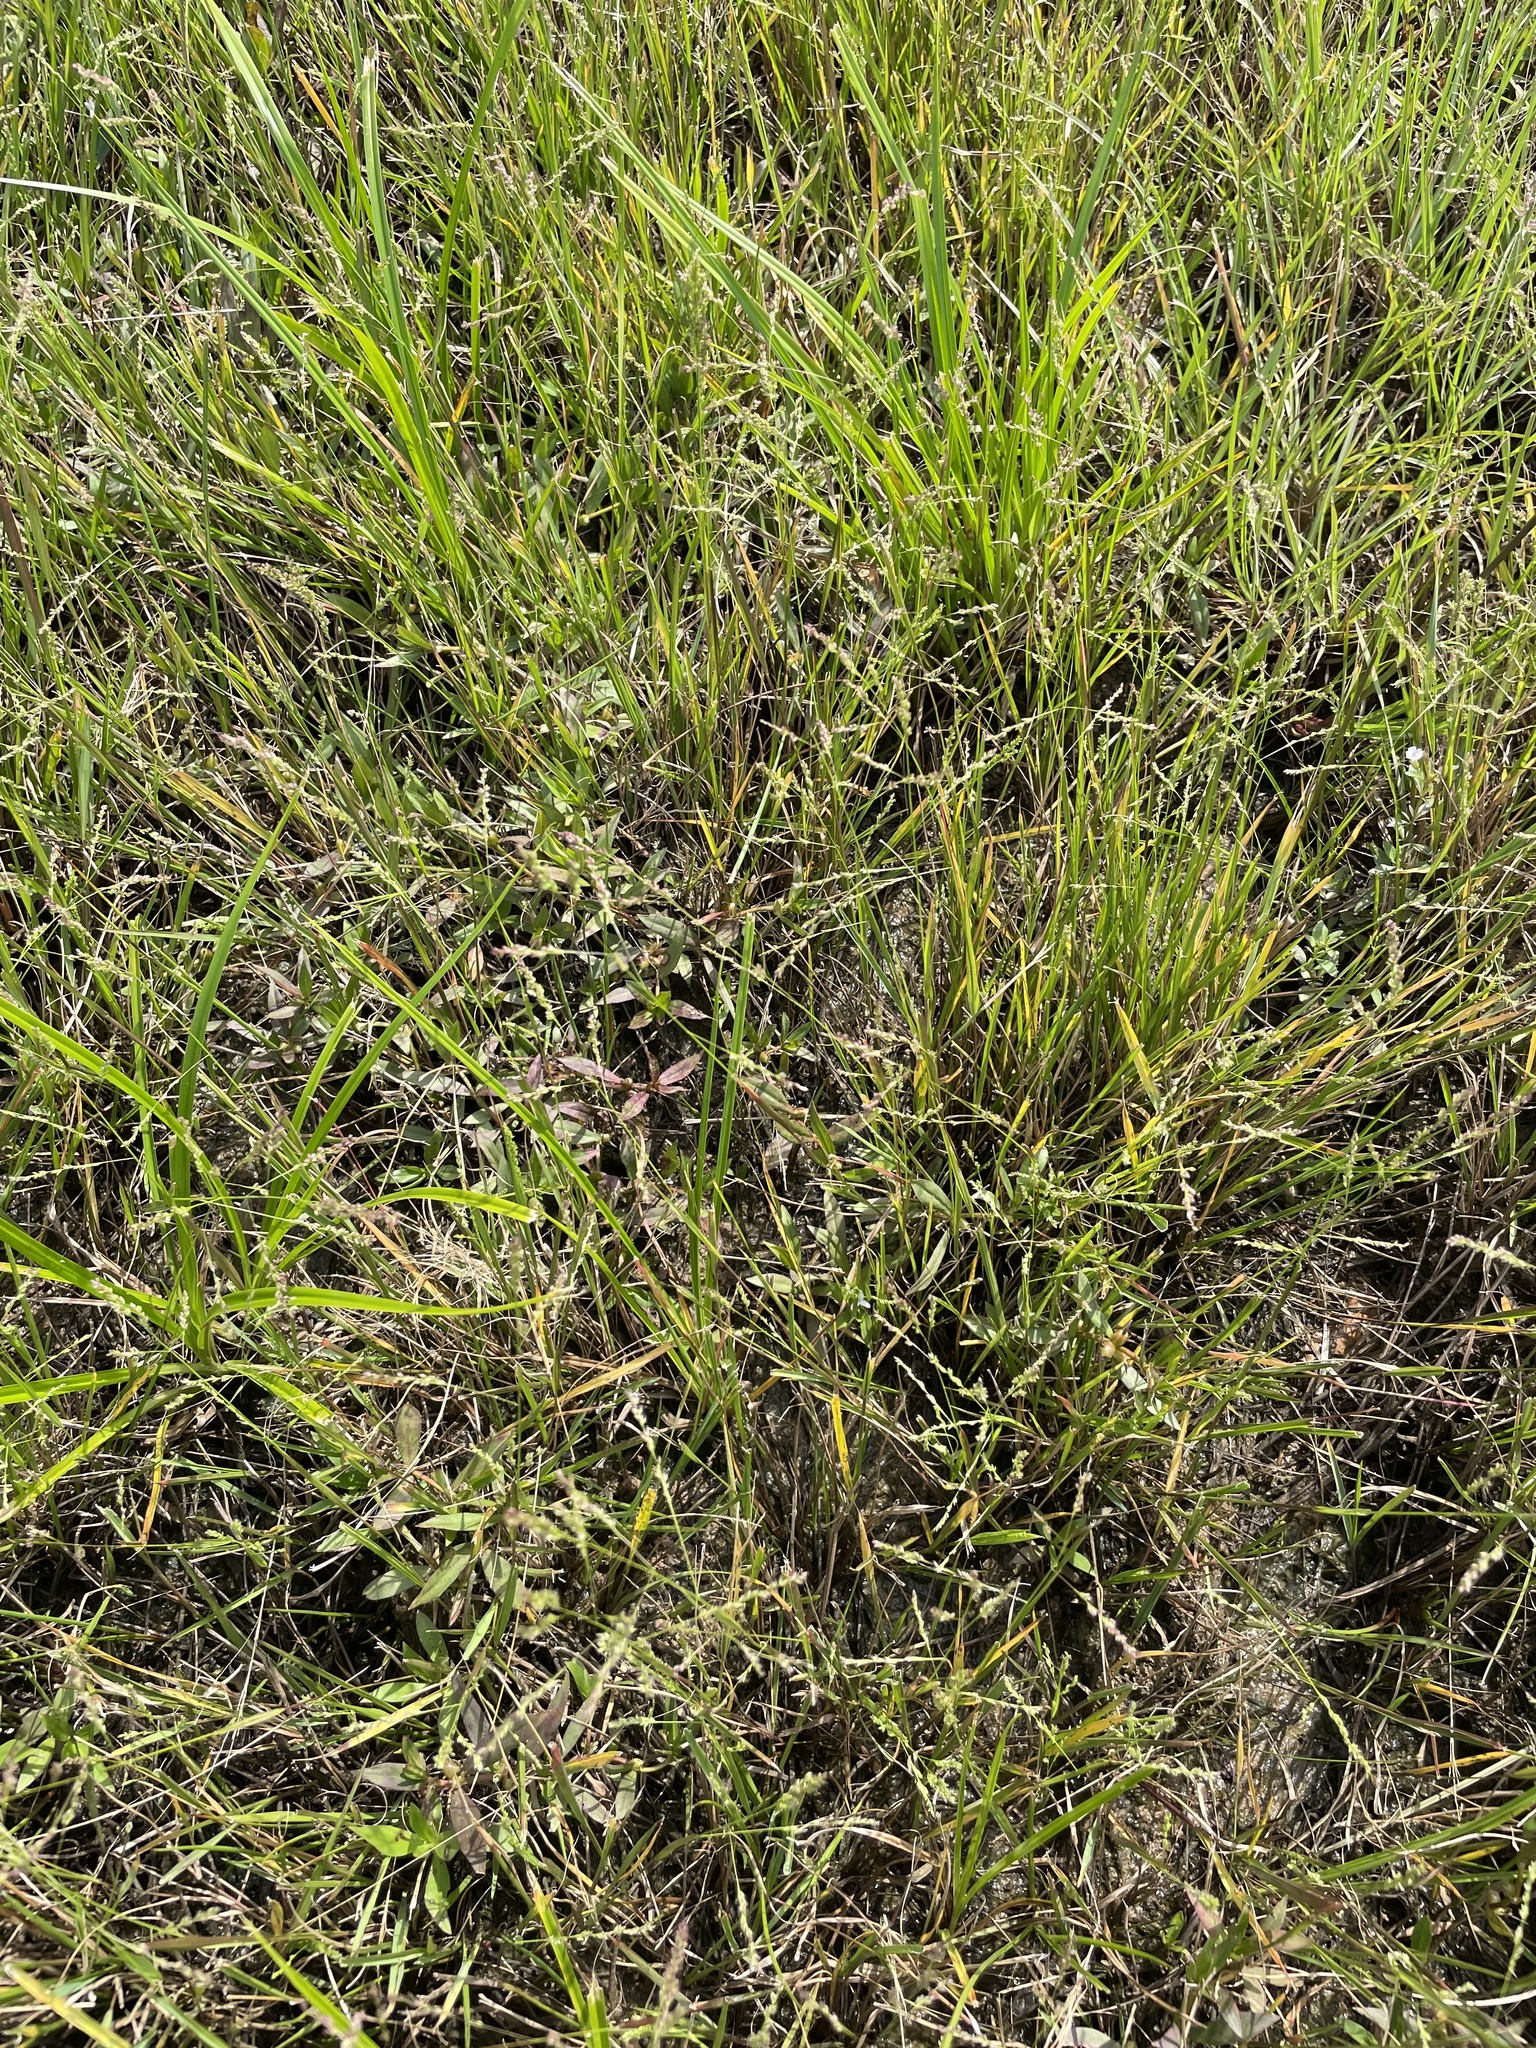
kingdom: Plantae
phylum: Tracheophyta
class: Liliopsida
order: Poales
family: Poaceae
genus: Steinchisma
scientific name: Steinchisma hians
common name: Gaping panic grass
